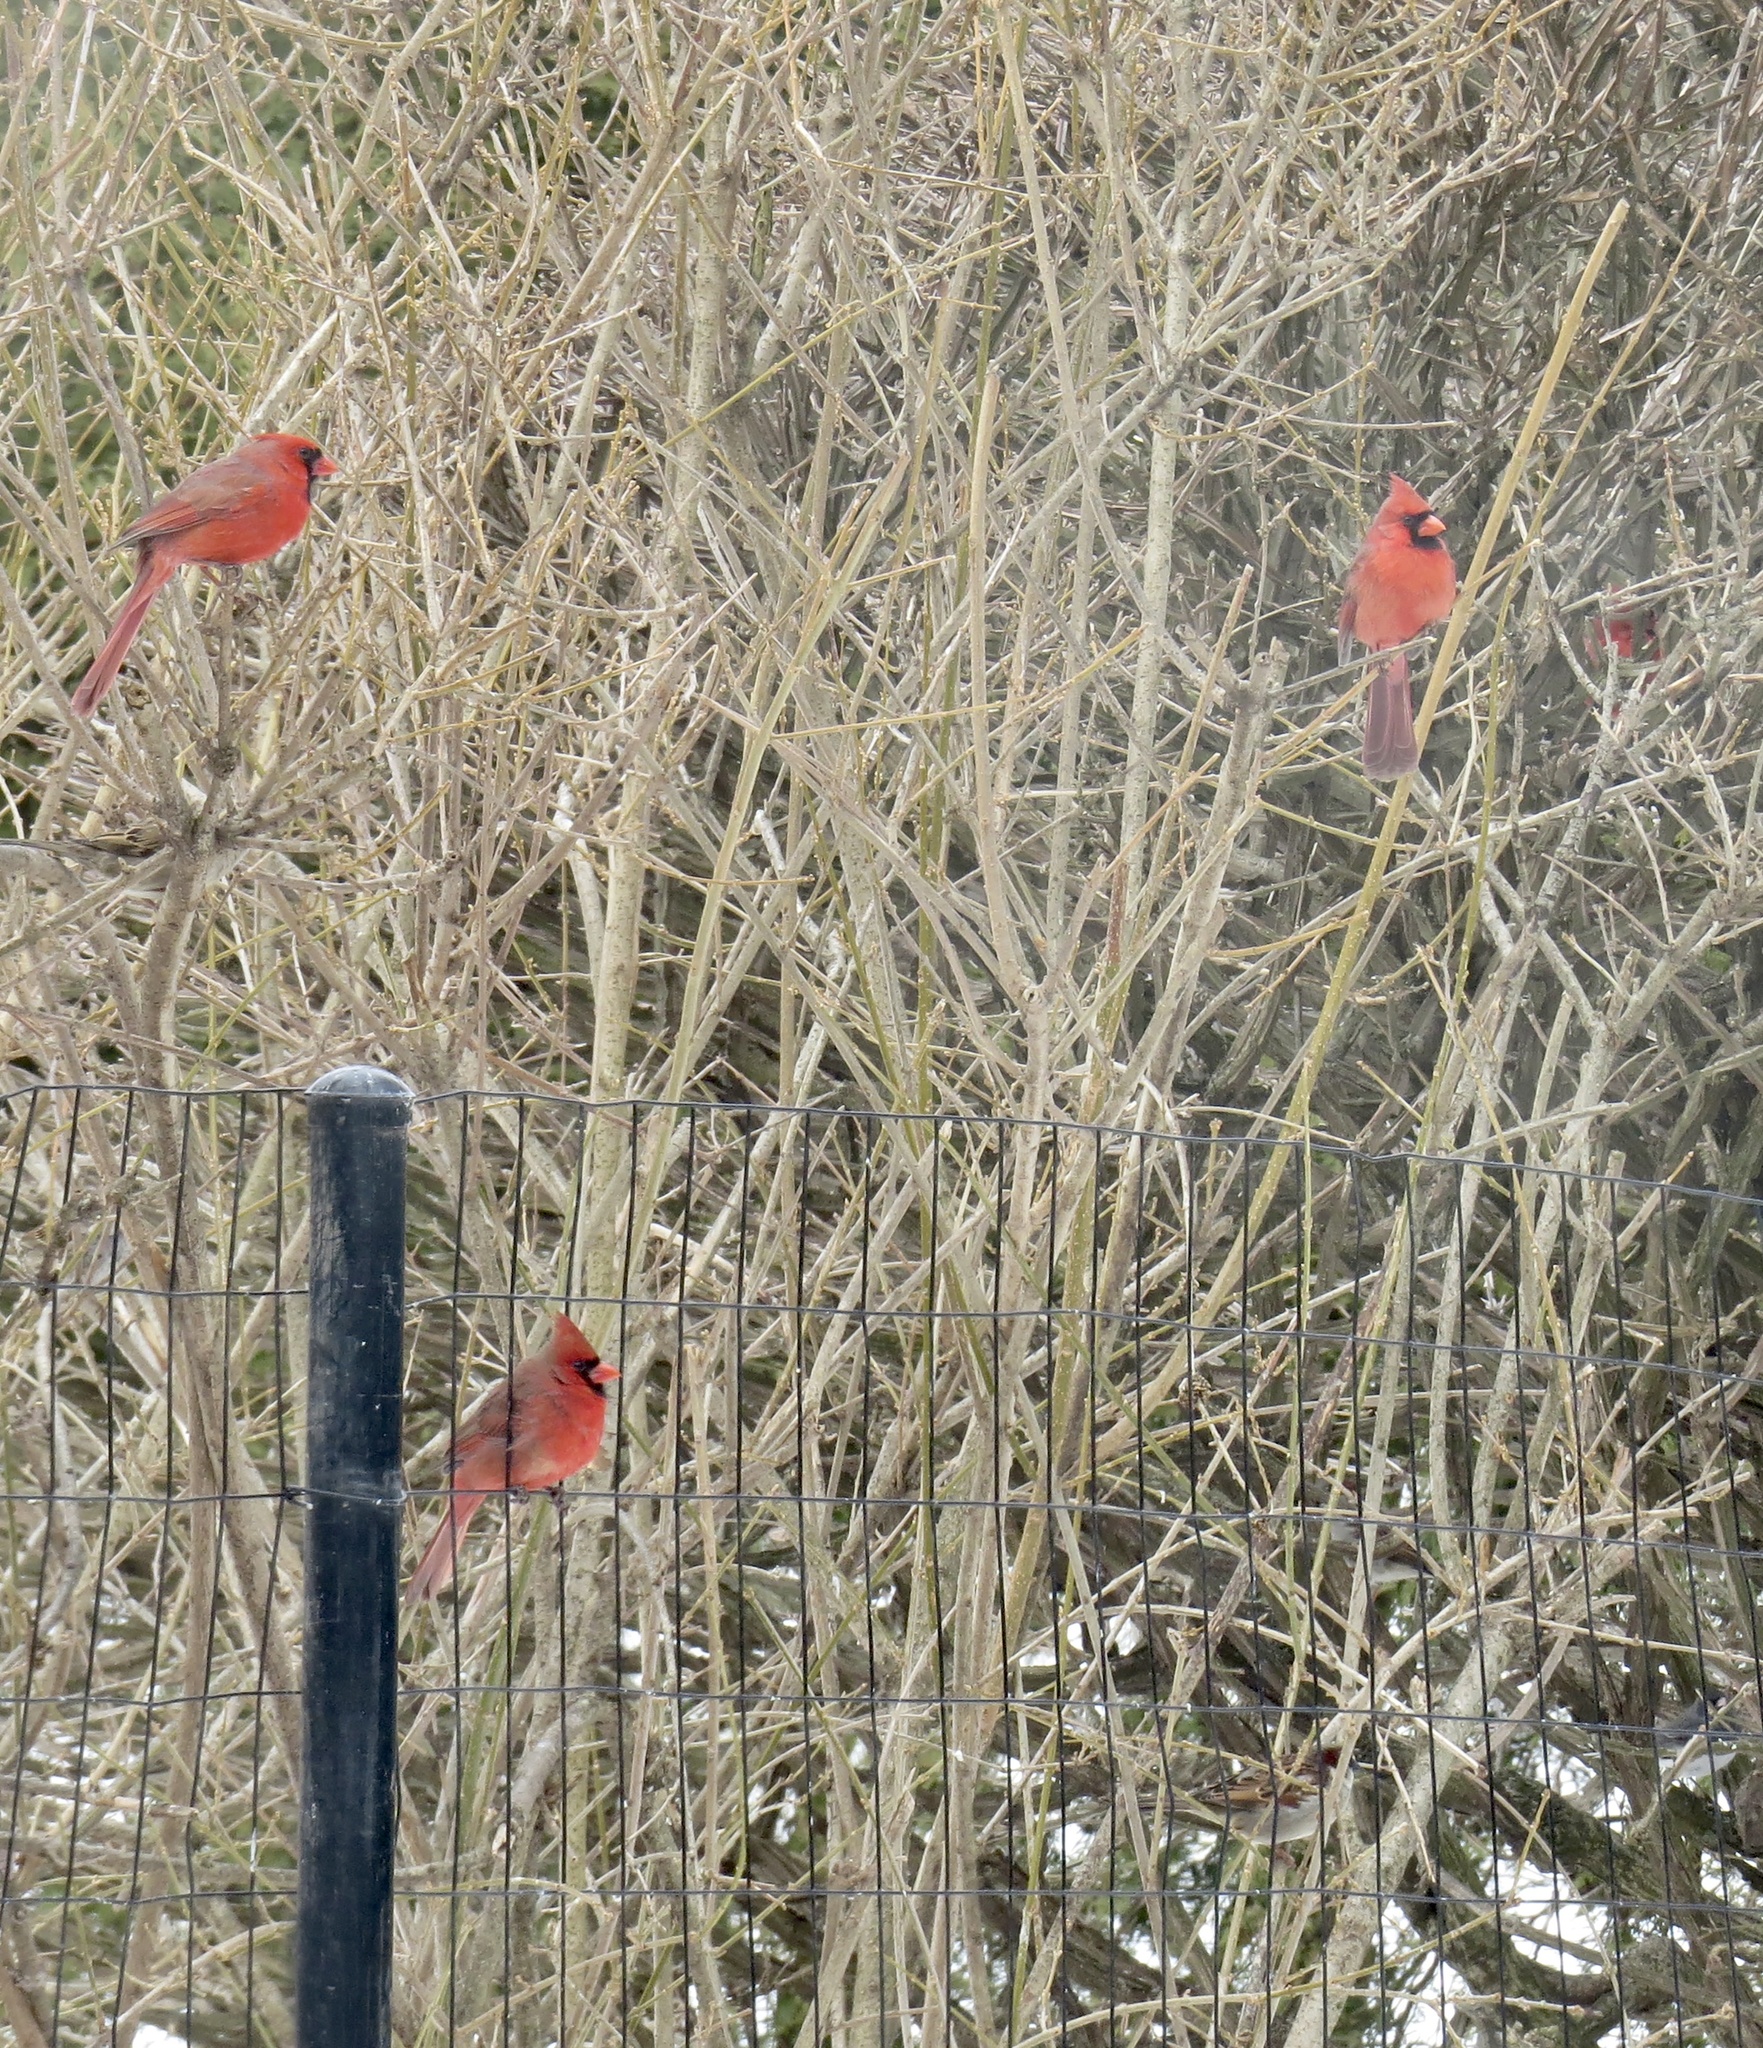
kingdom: Animalia
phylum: Chordata
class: Aves
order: Passeriformes
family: Cardinalidae
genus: Cardinalis
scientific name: Cardinalis cardinalis
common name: Northern cardinal
